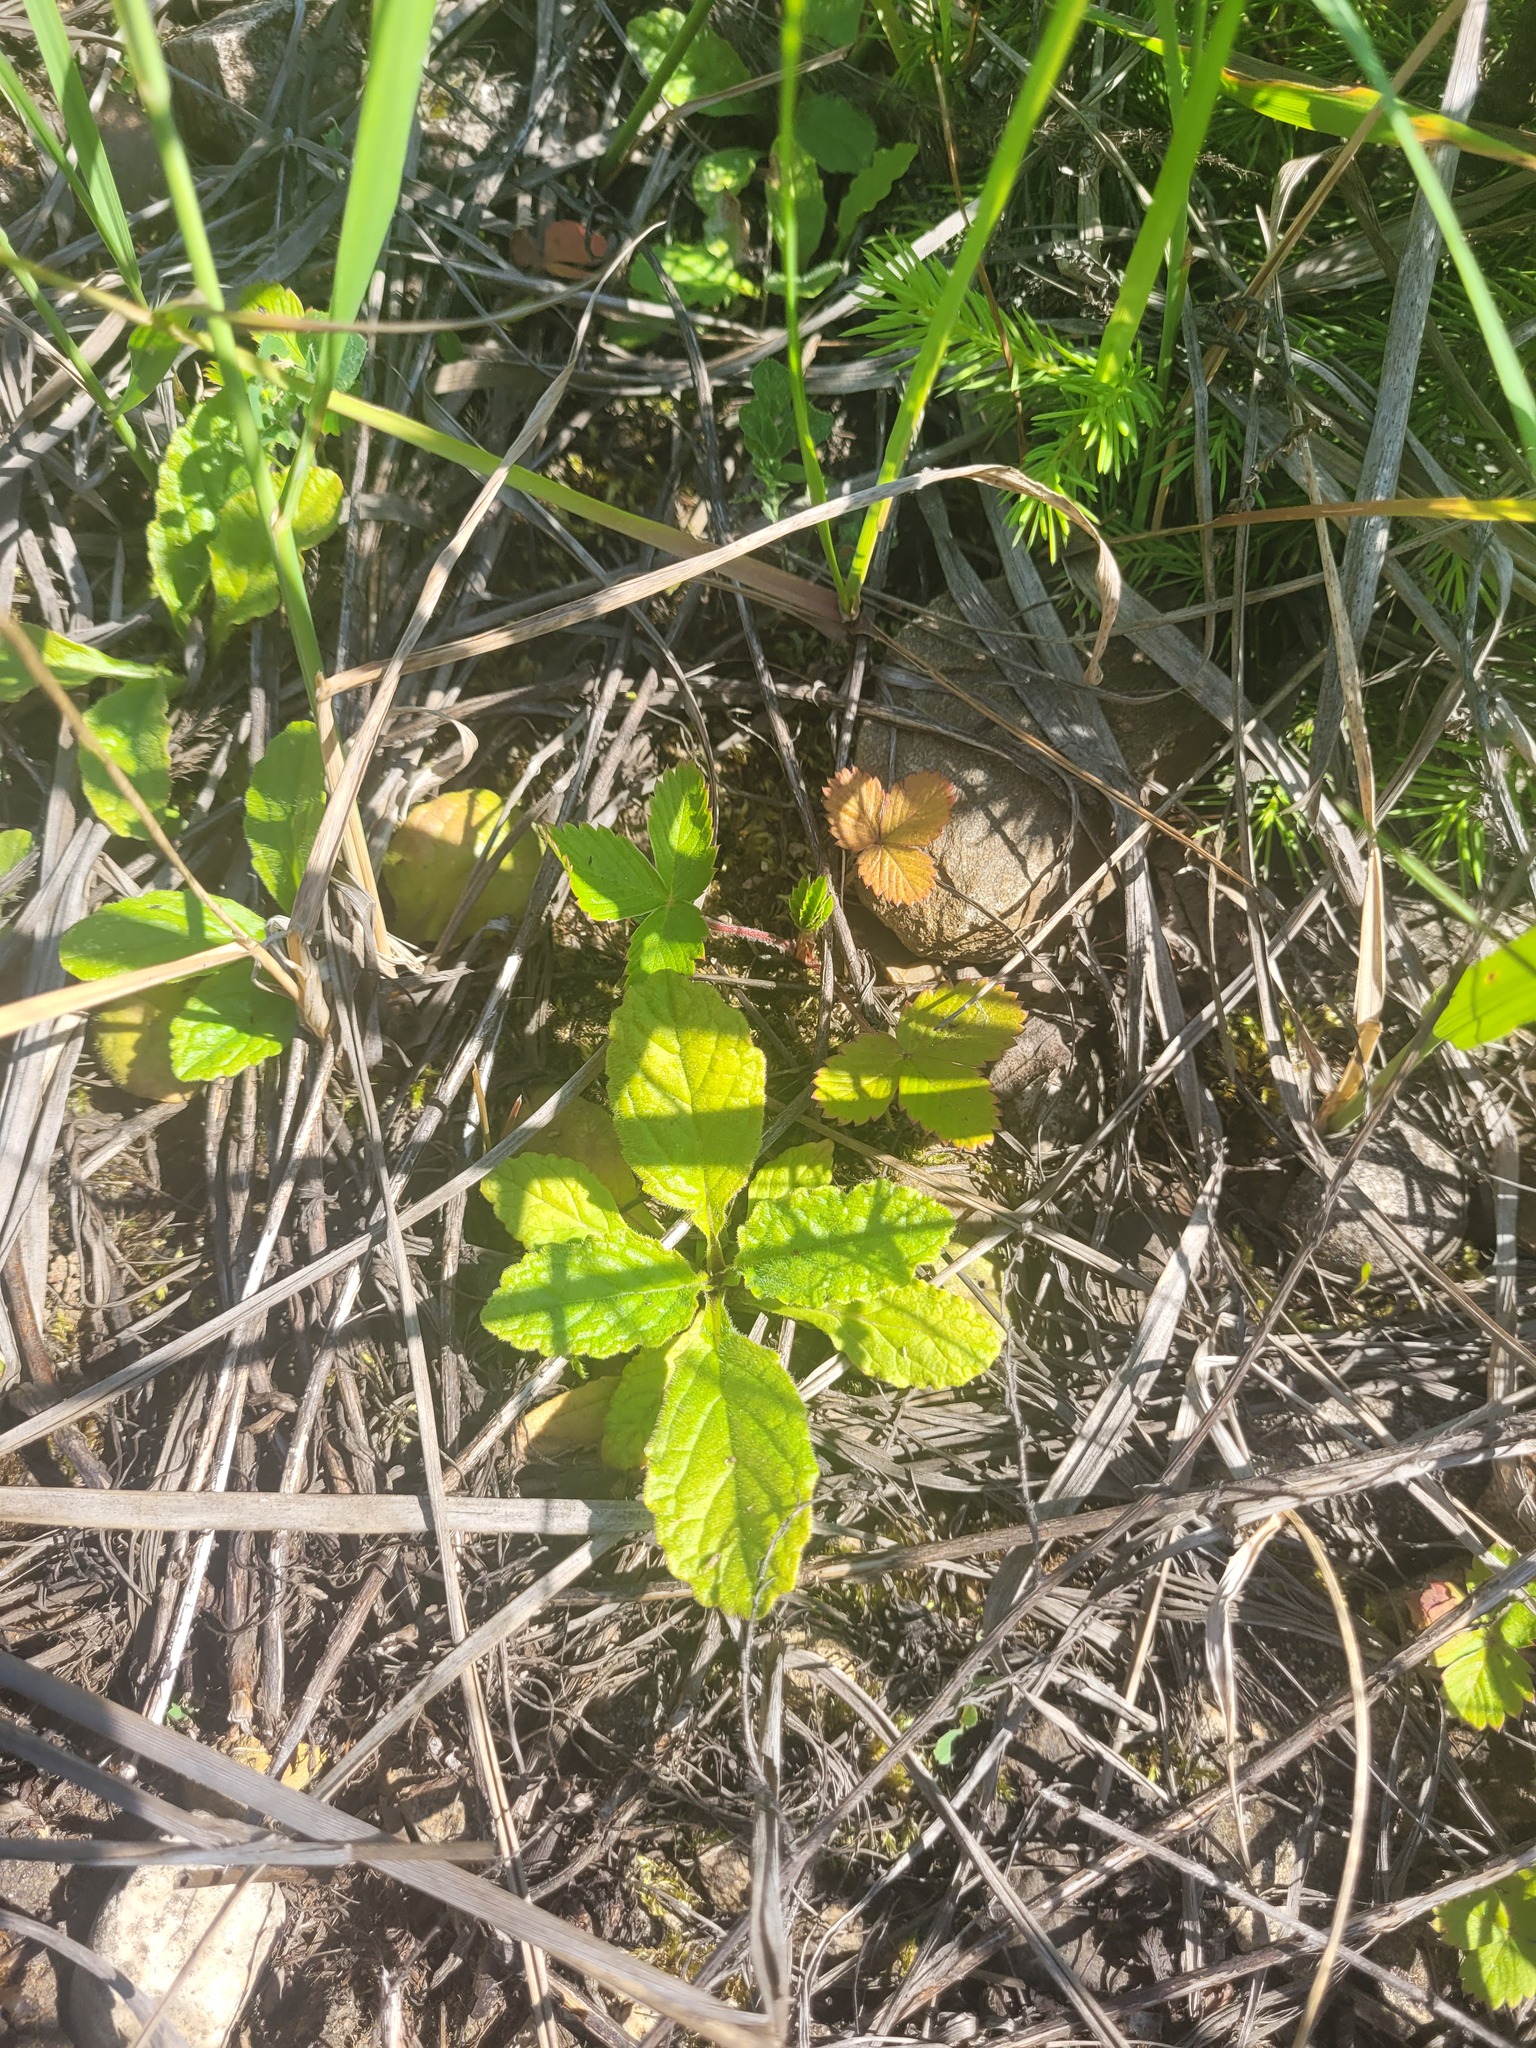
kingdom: Plantae
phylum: Tracheophyta
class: Magnoliopsida
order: Lamiales
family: Lamiaceae
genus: Ajuga
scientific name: Ajuga reptans
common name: Bugle
